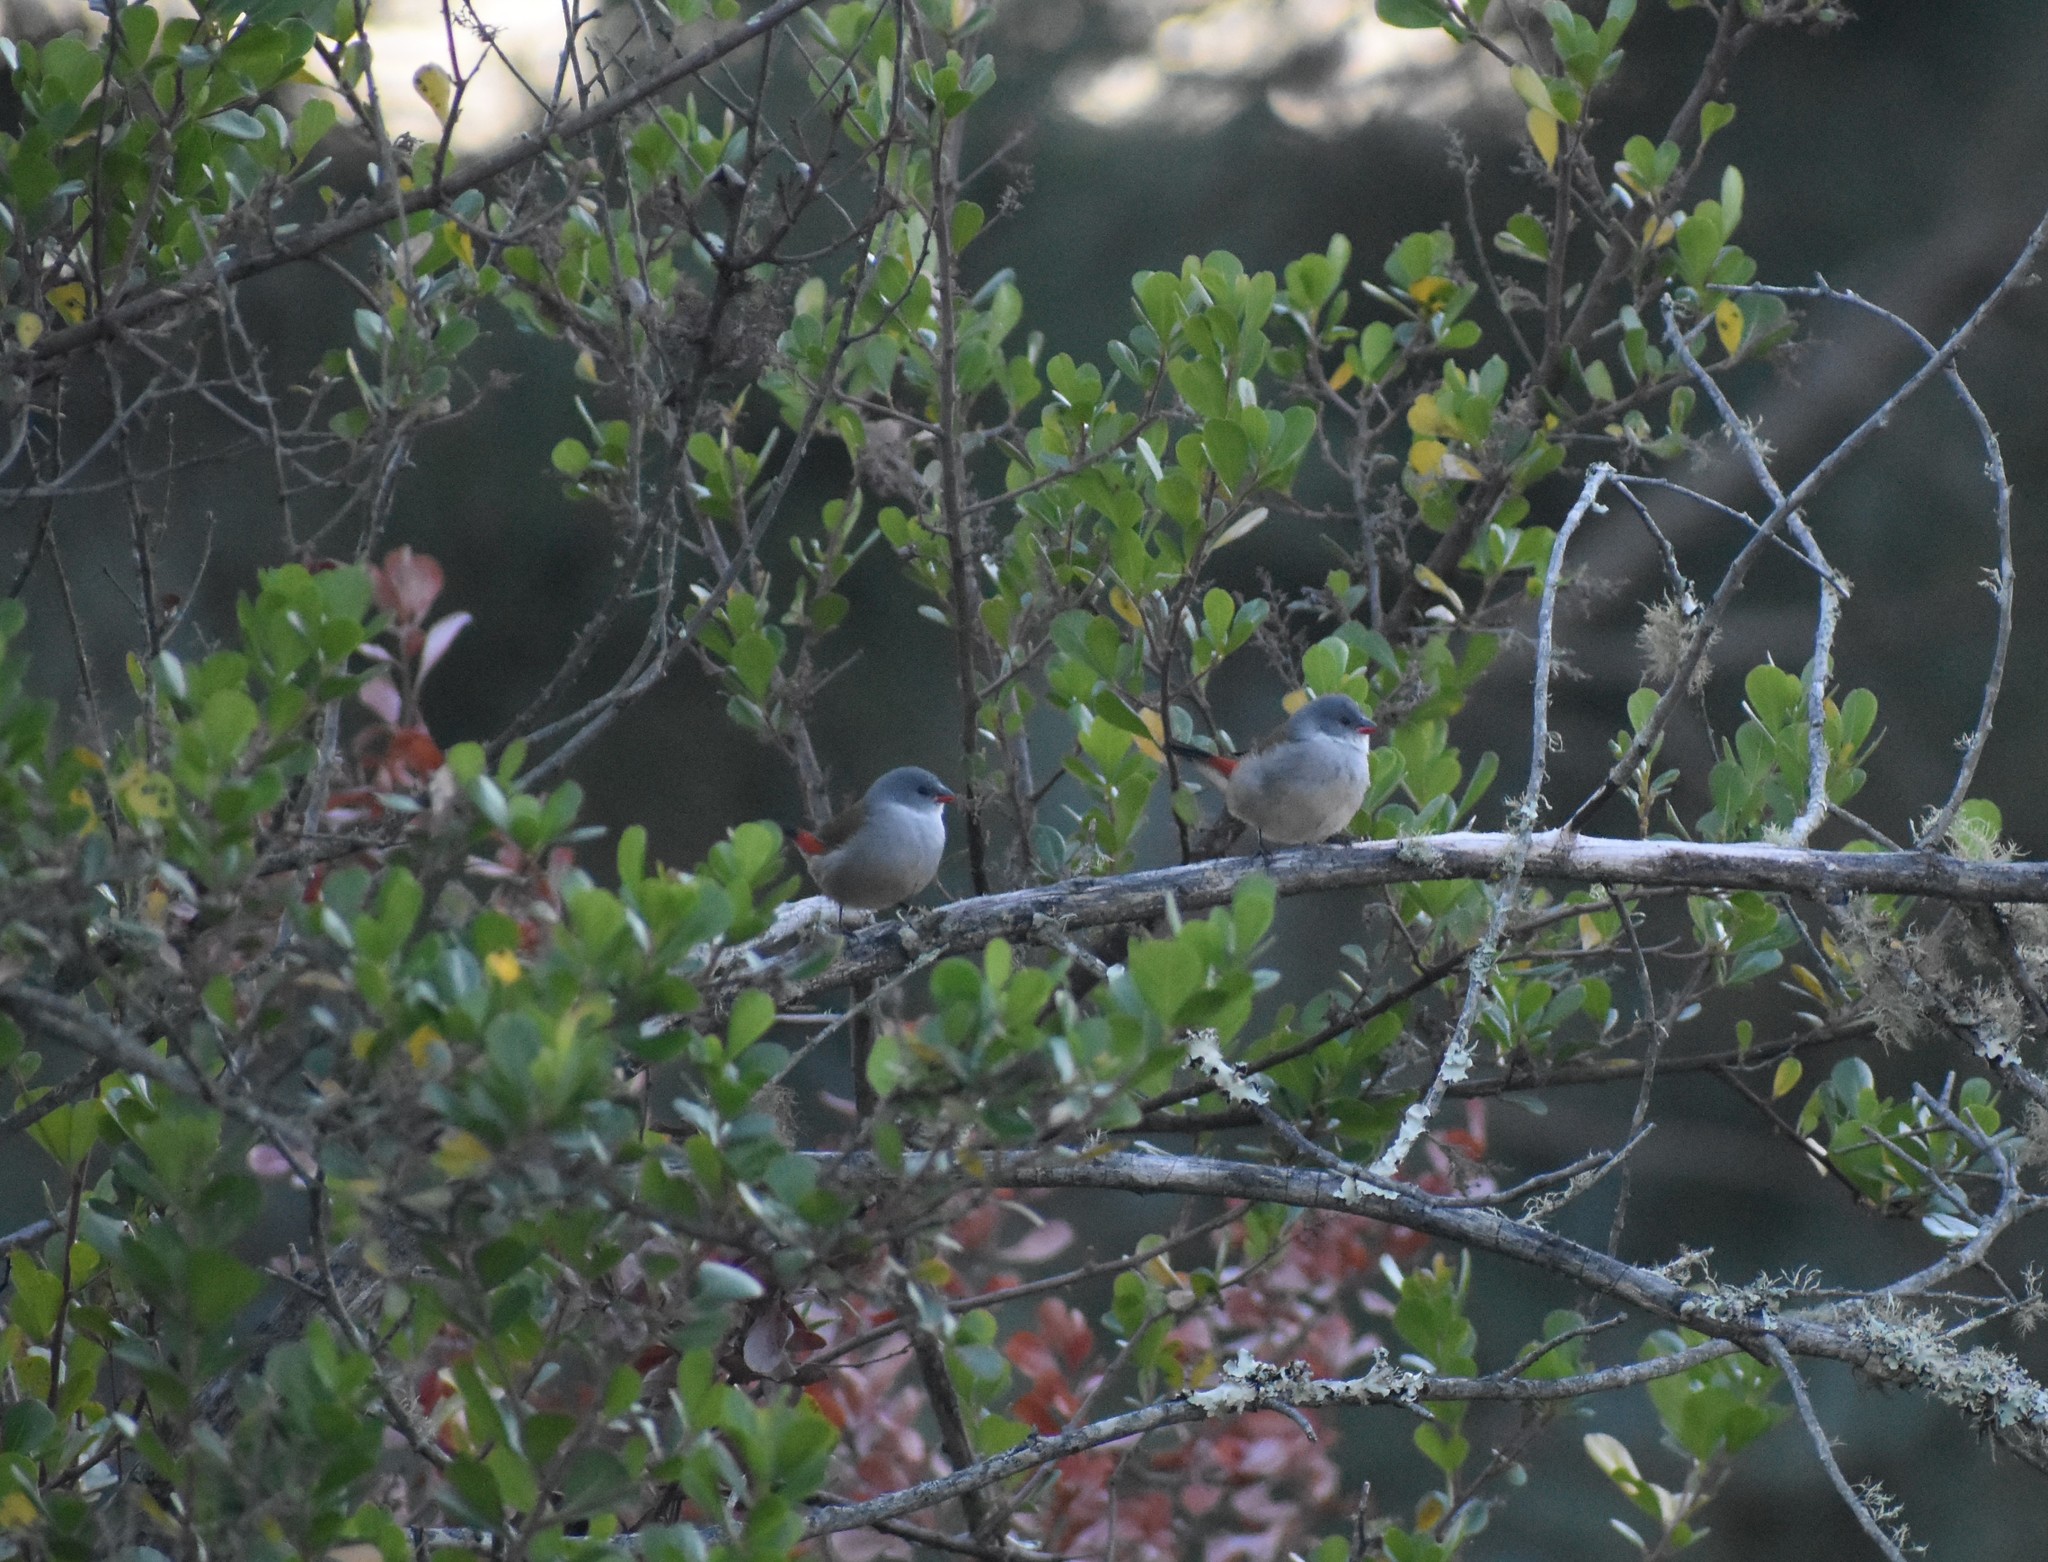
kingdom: Animalia
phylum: Chordata
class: Aves
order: Passeriformes
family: Estrildidae
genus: Coccopygia
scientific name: Coccopygia melanotis
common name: Swee waxbill
